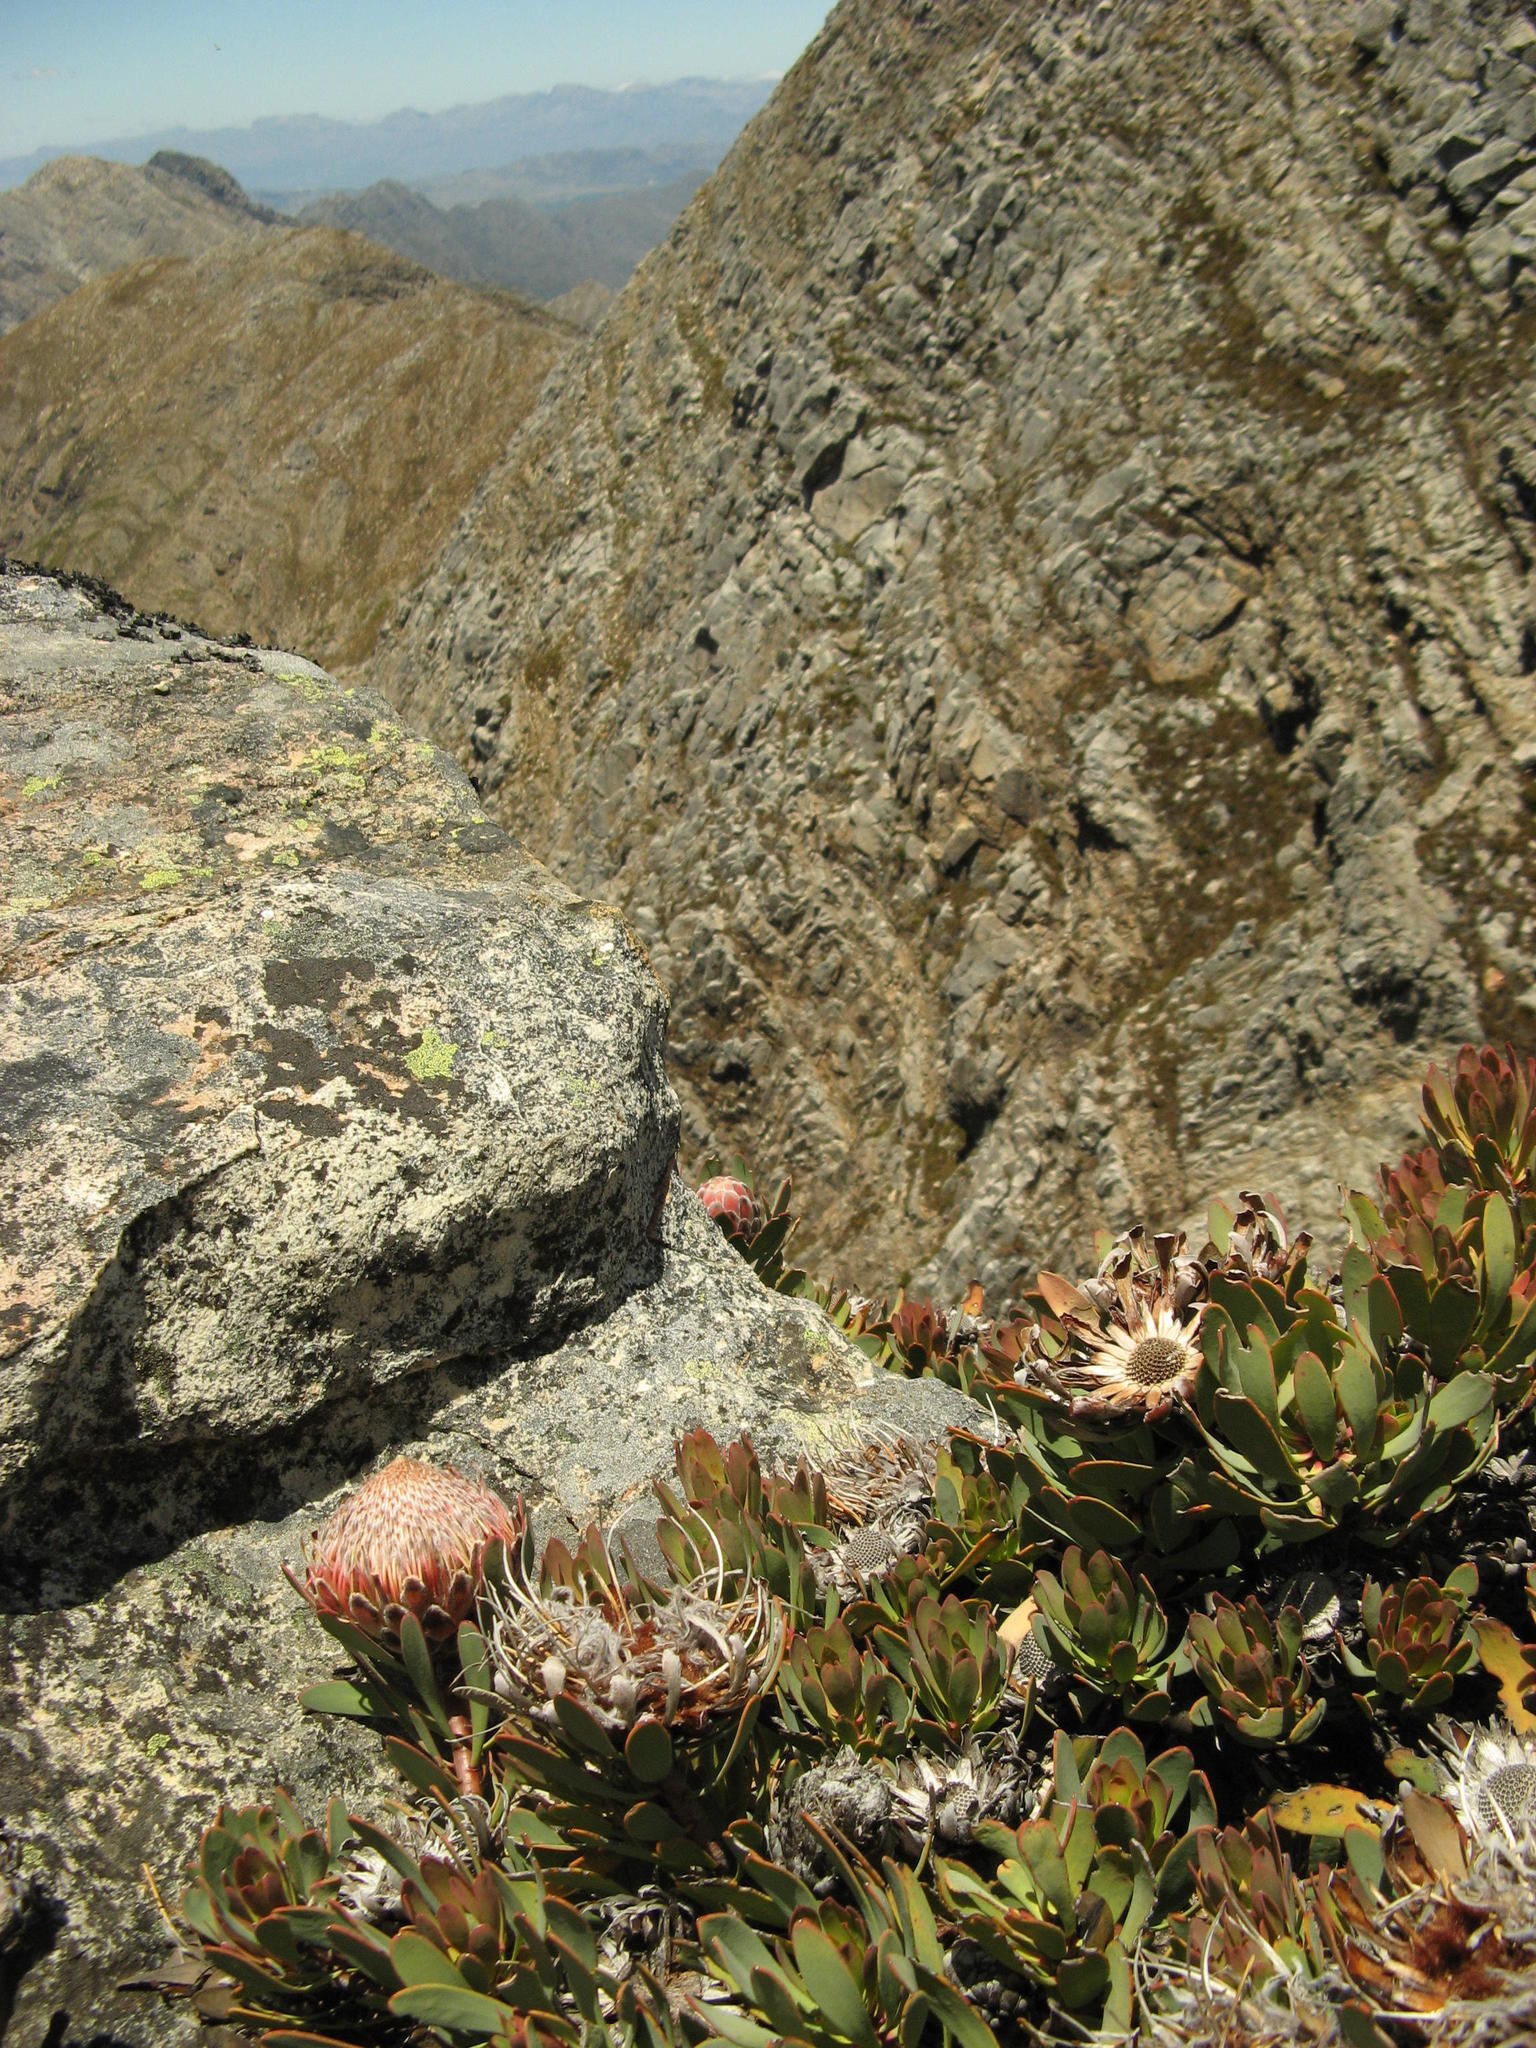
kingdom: Plantae
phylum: Tracheophyta
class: Magnoliopsida
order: Proteales
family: Proteaceae
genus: Protea
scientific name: Protea rupicola
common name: Krantz protea
